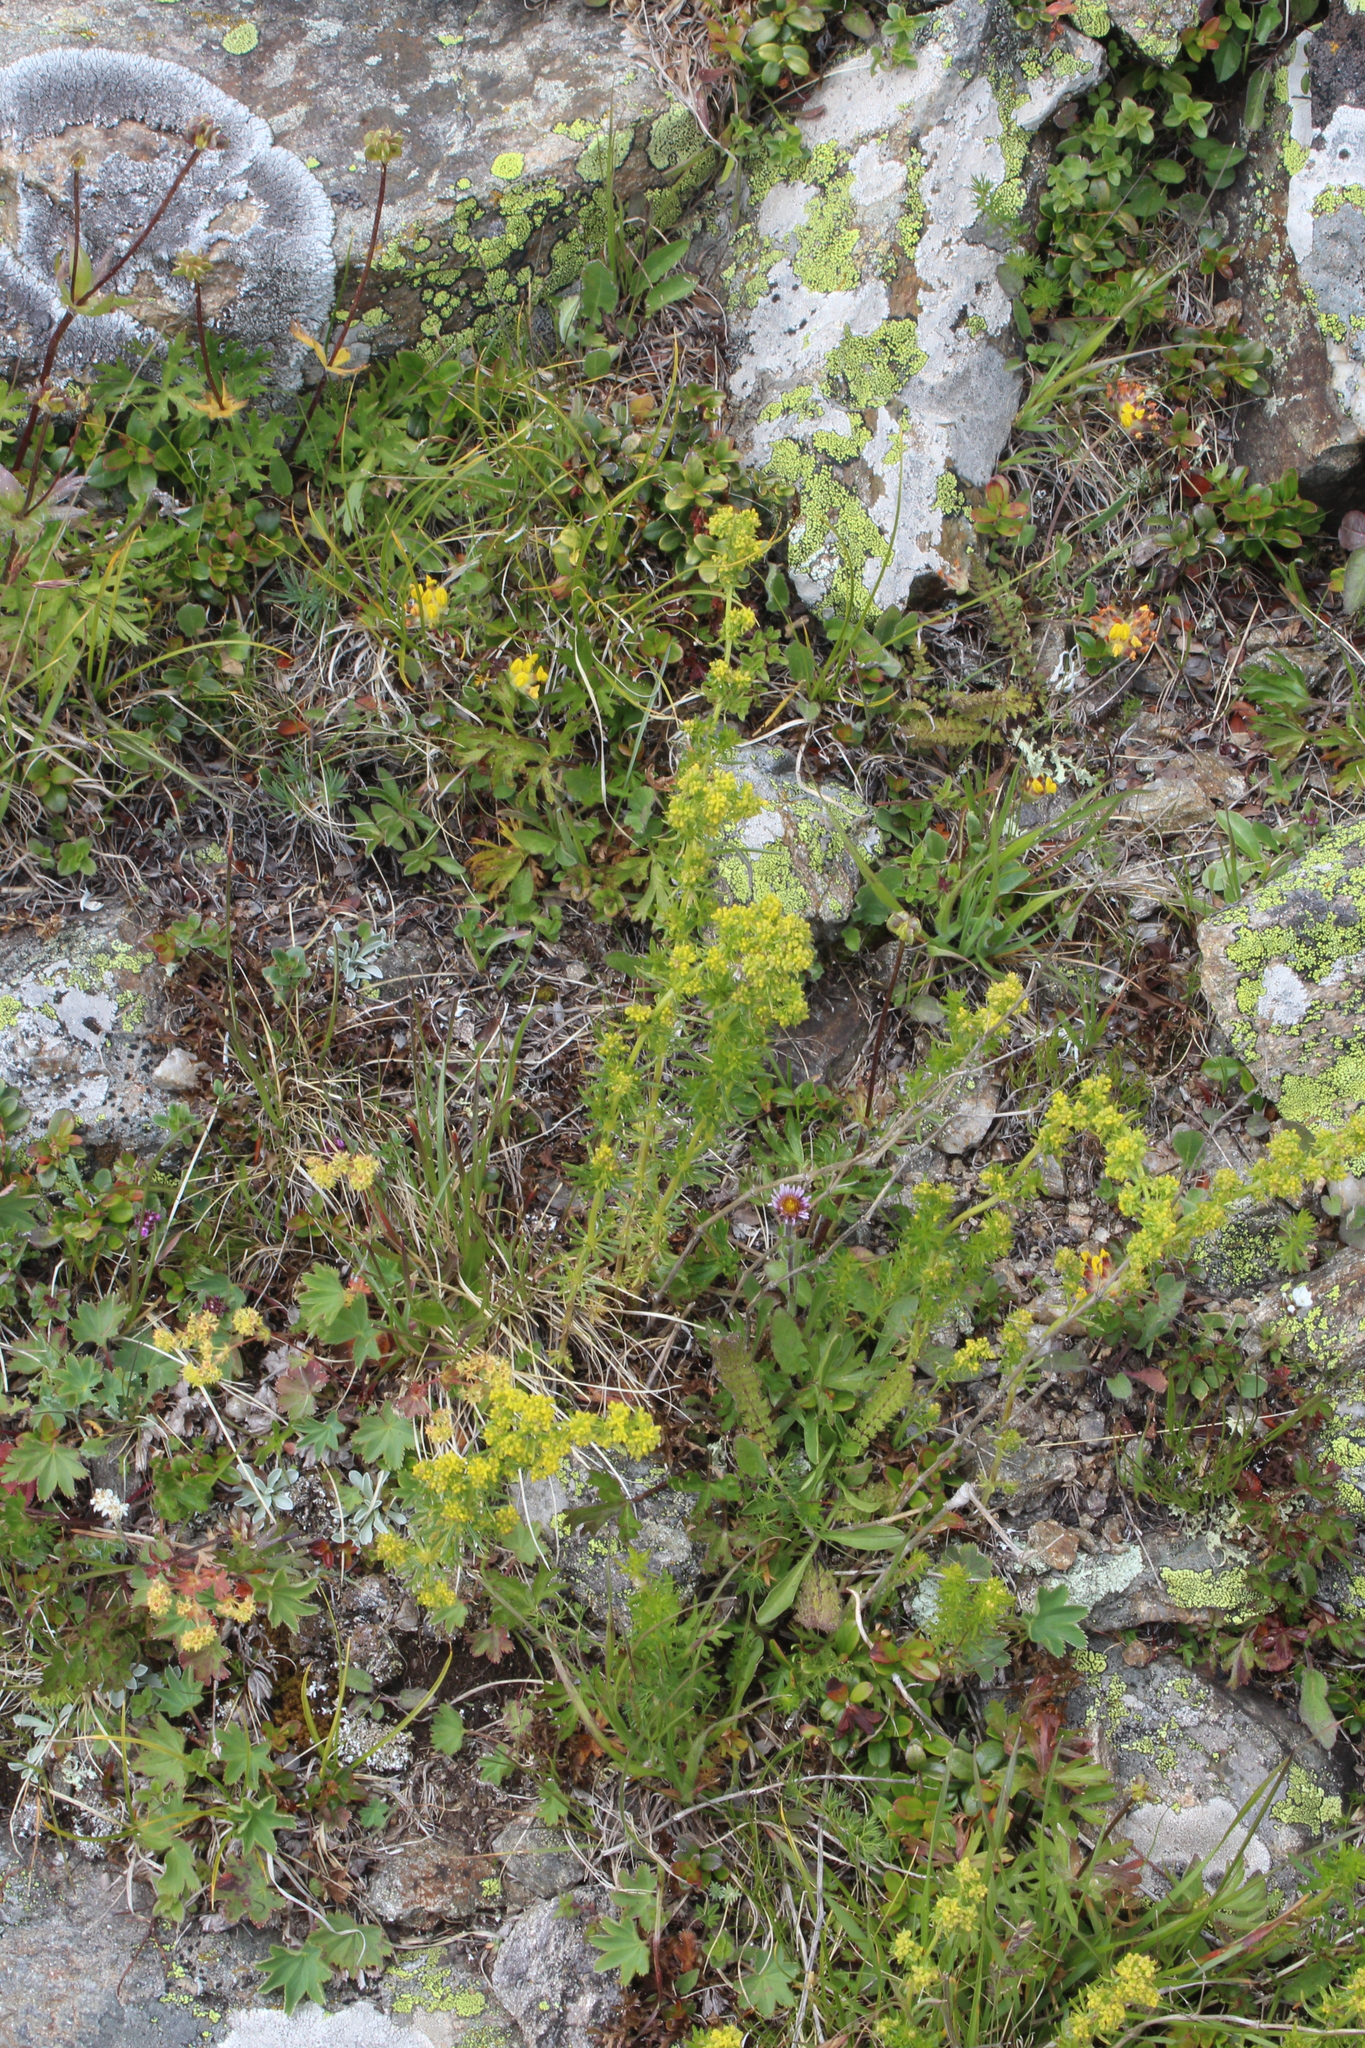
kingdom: Plantae
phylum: Tracheophyta
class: Magnoliopsida
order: Gentianales
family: Rubiaceae
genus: Galium
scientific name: Galium verum
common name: Lady's bedstraw
